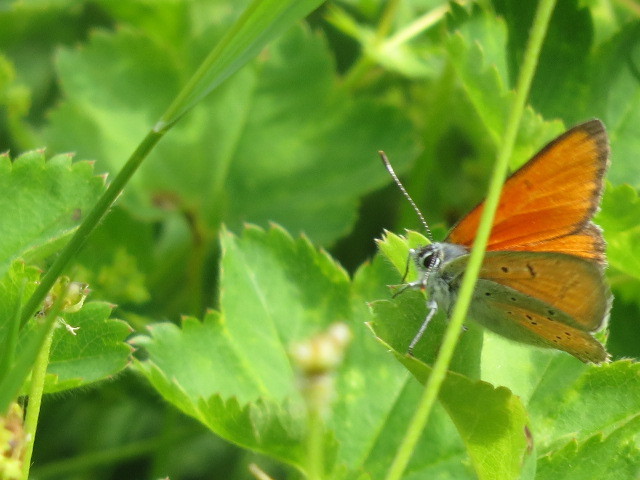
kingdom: Animalia
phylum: Arthropoda
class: Insecta
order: Lepidoptera
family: Lycaenidae
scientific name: Lycaenidae
